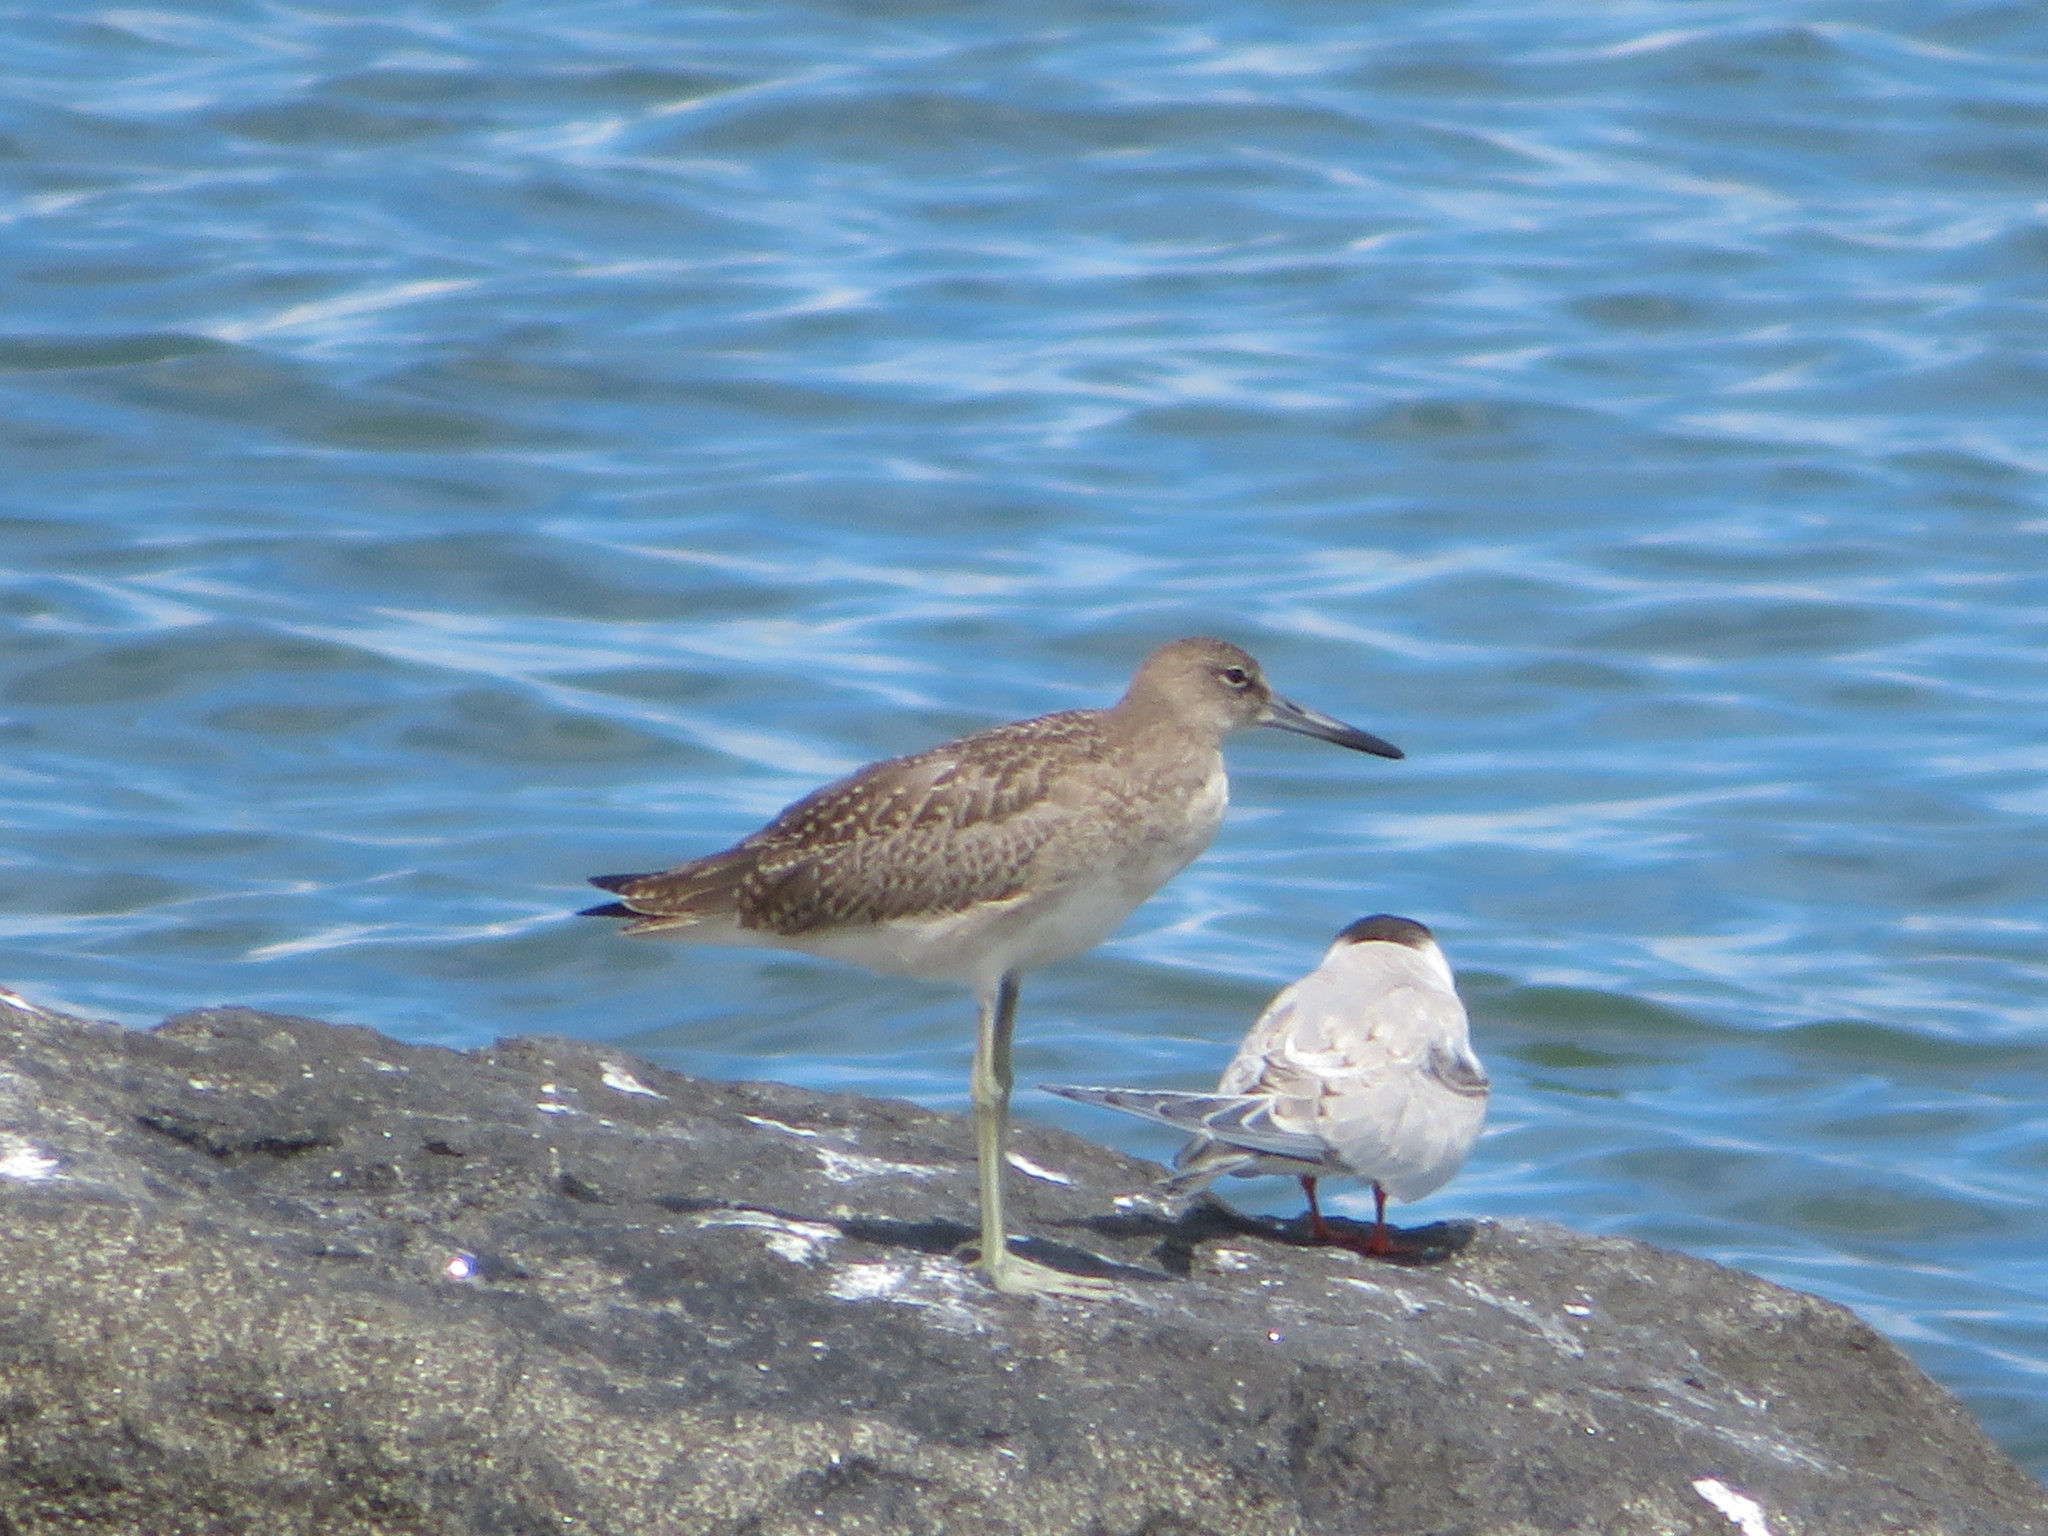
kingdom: Animalia
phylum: Chordata
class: Aves
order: Charadriiformes
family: Scolopacidae
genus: Tringa
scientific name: Tringa semipalmata
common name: Willet
